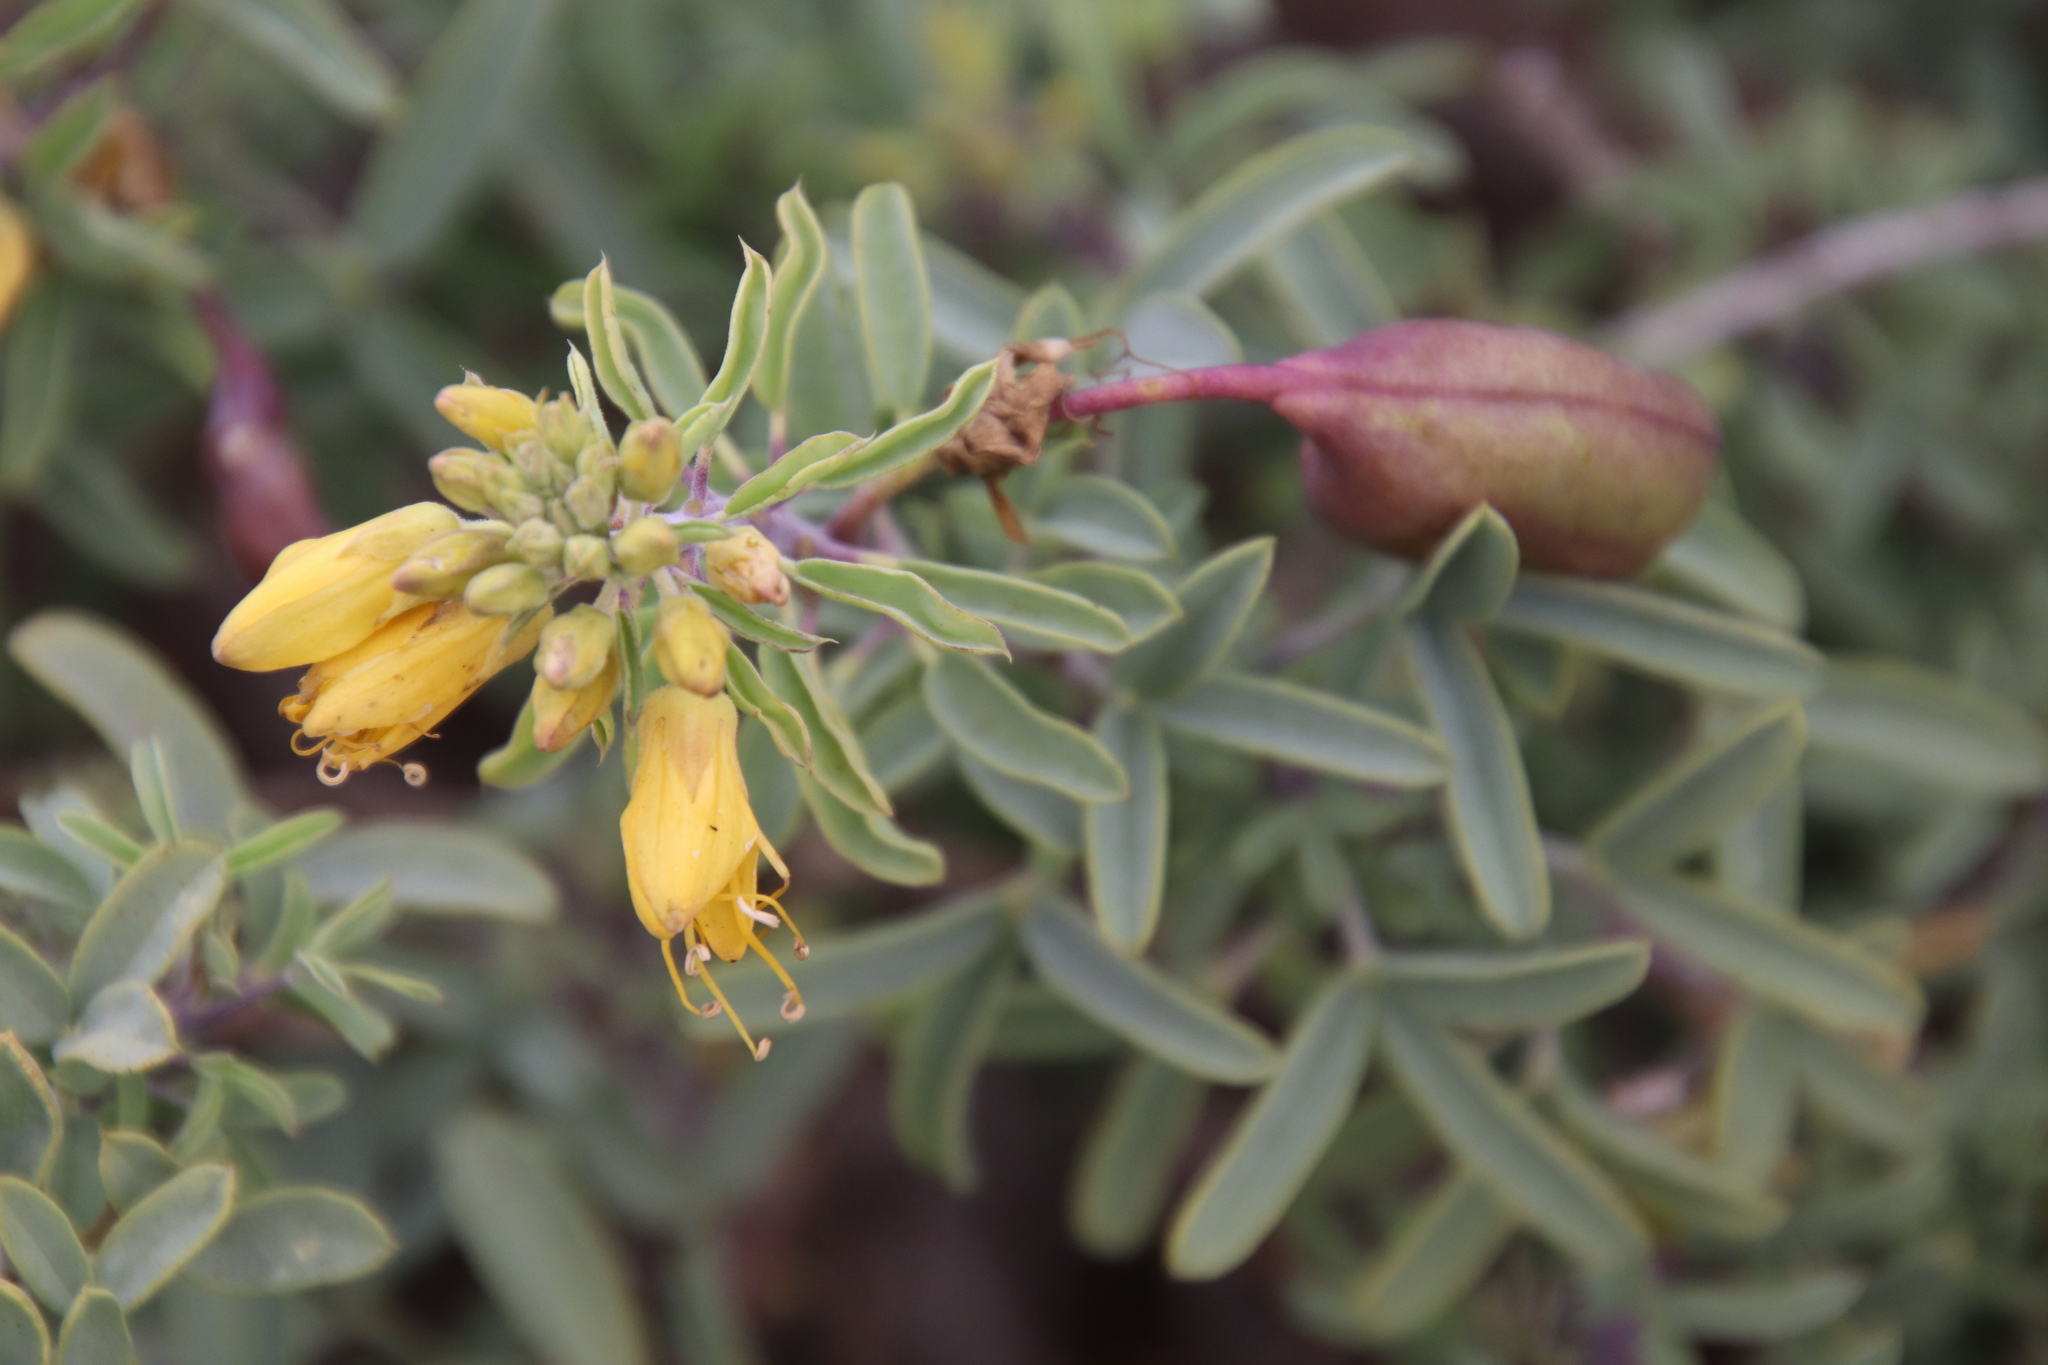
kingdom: Plantae
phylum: Tracheophyta
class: Magnoliopsida
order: Brassicales
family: Cleomaceae
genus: Cleomella
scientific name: Cleomella arborea
